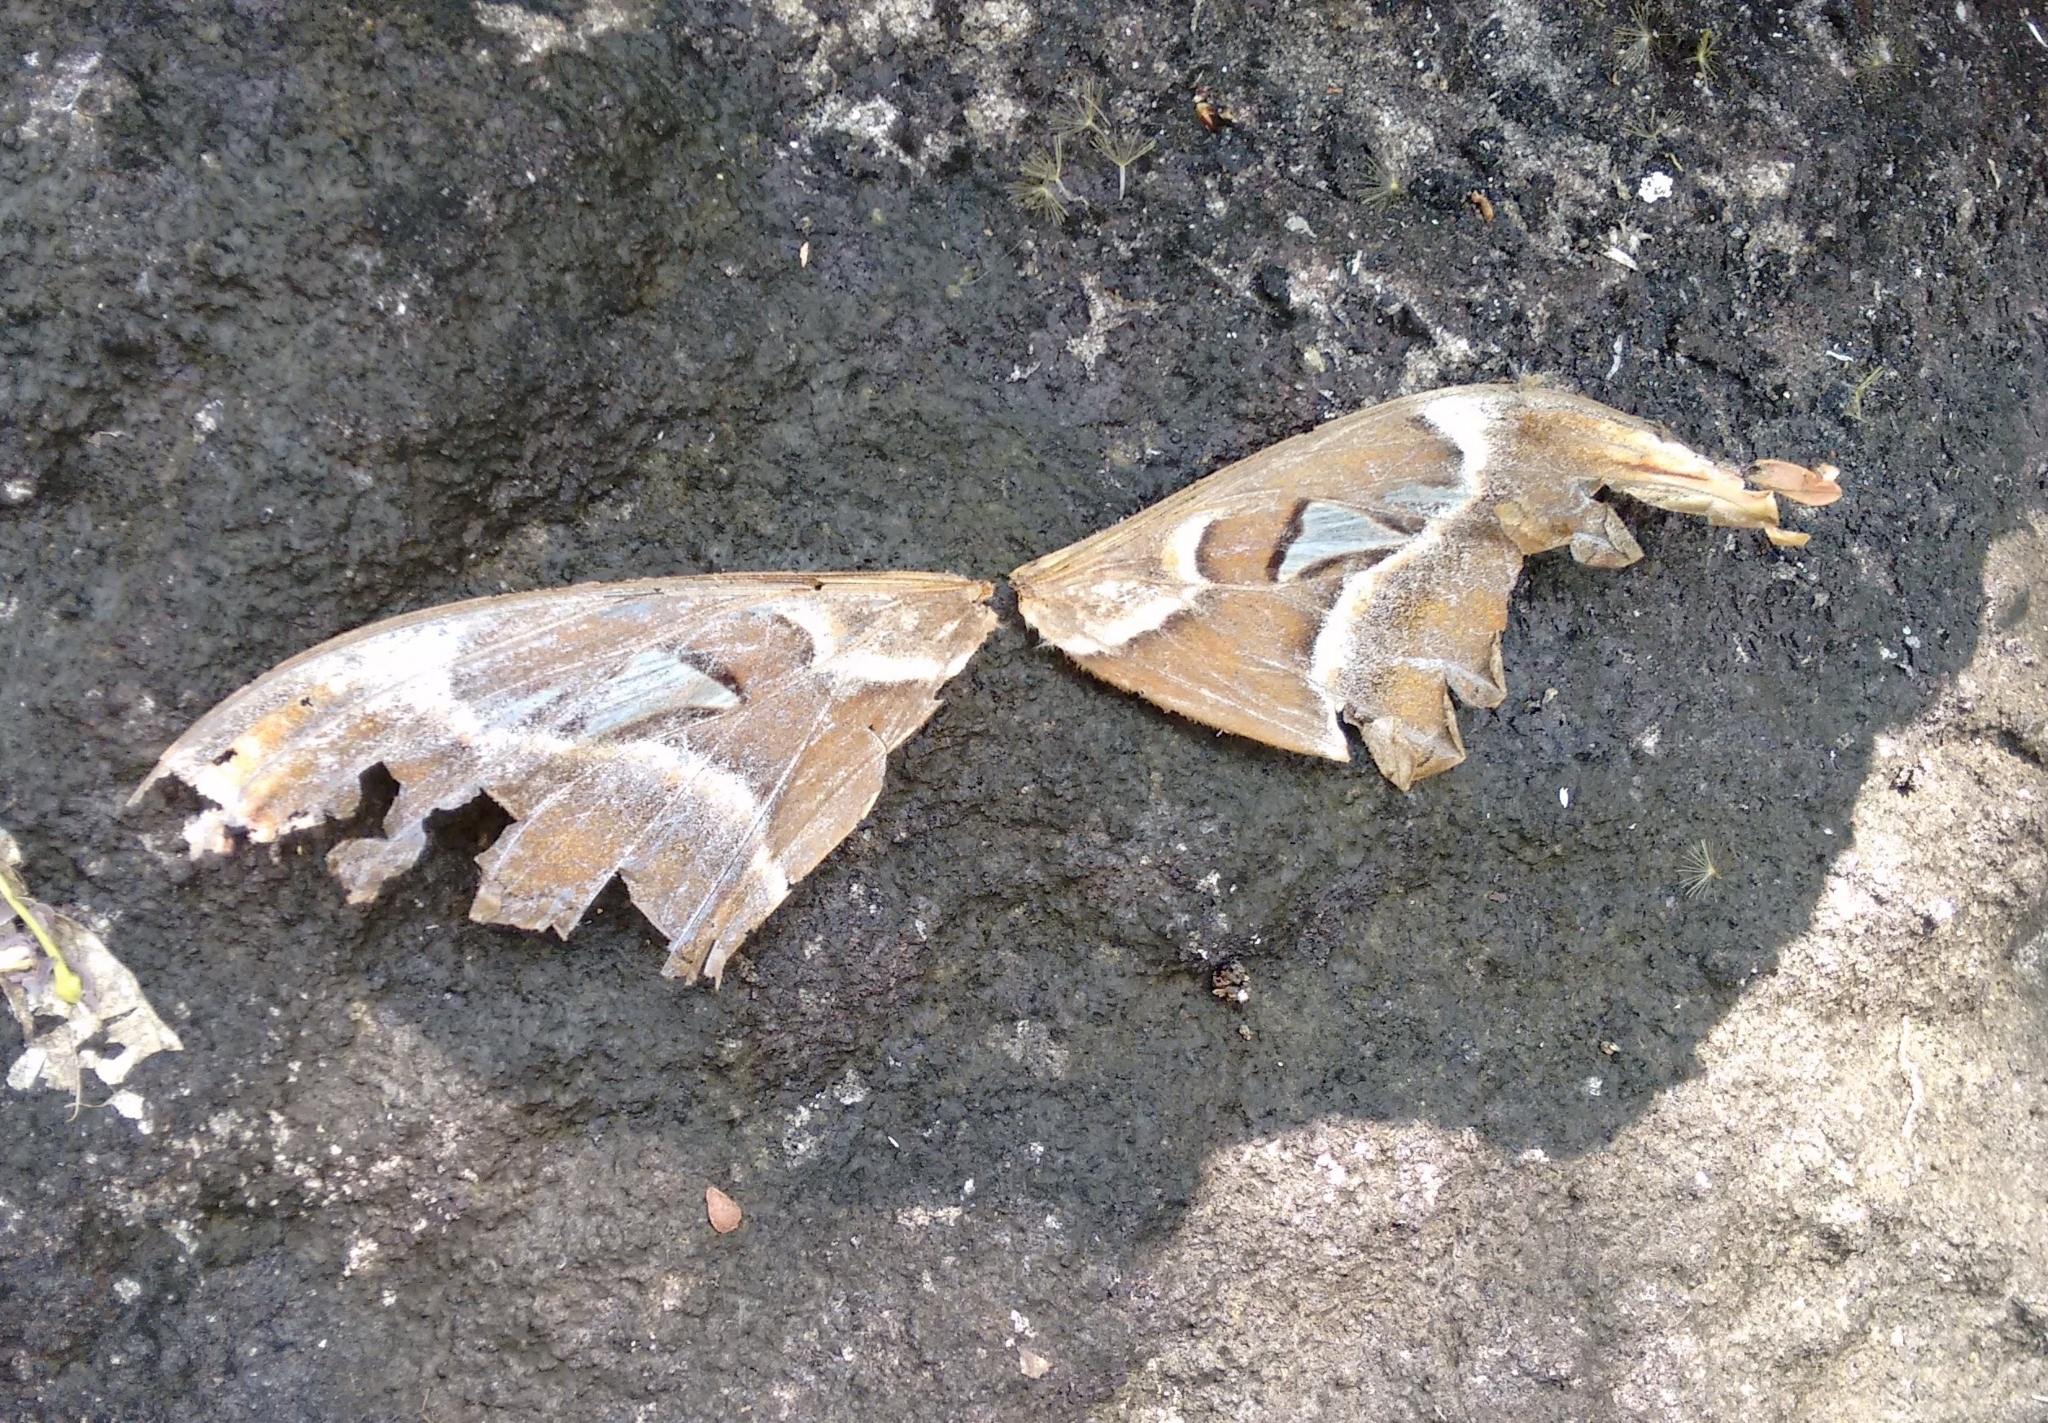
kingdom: Animalia
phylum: Arthropoda
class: Insecta
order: Lepidoptera
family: Saturniidae
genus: Attacus
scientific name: Attacus taprobanis
